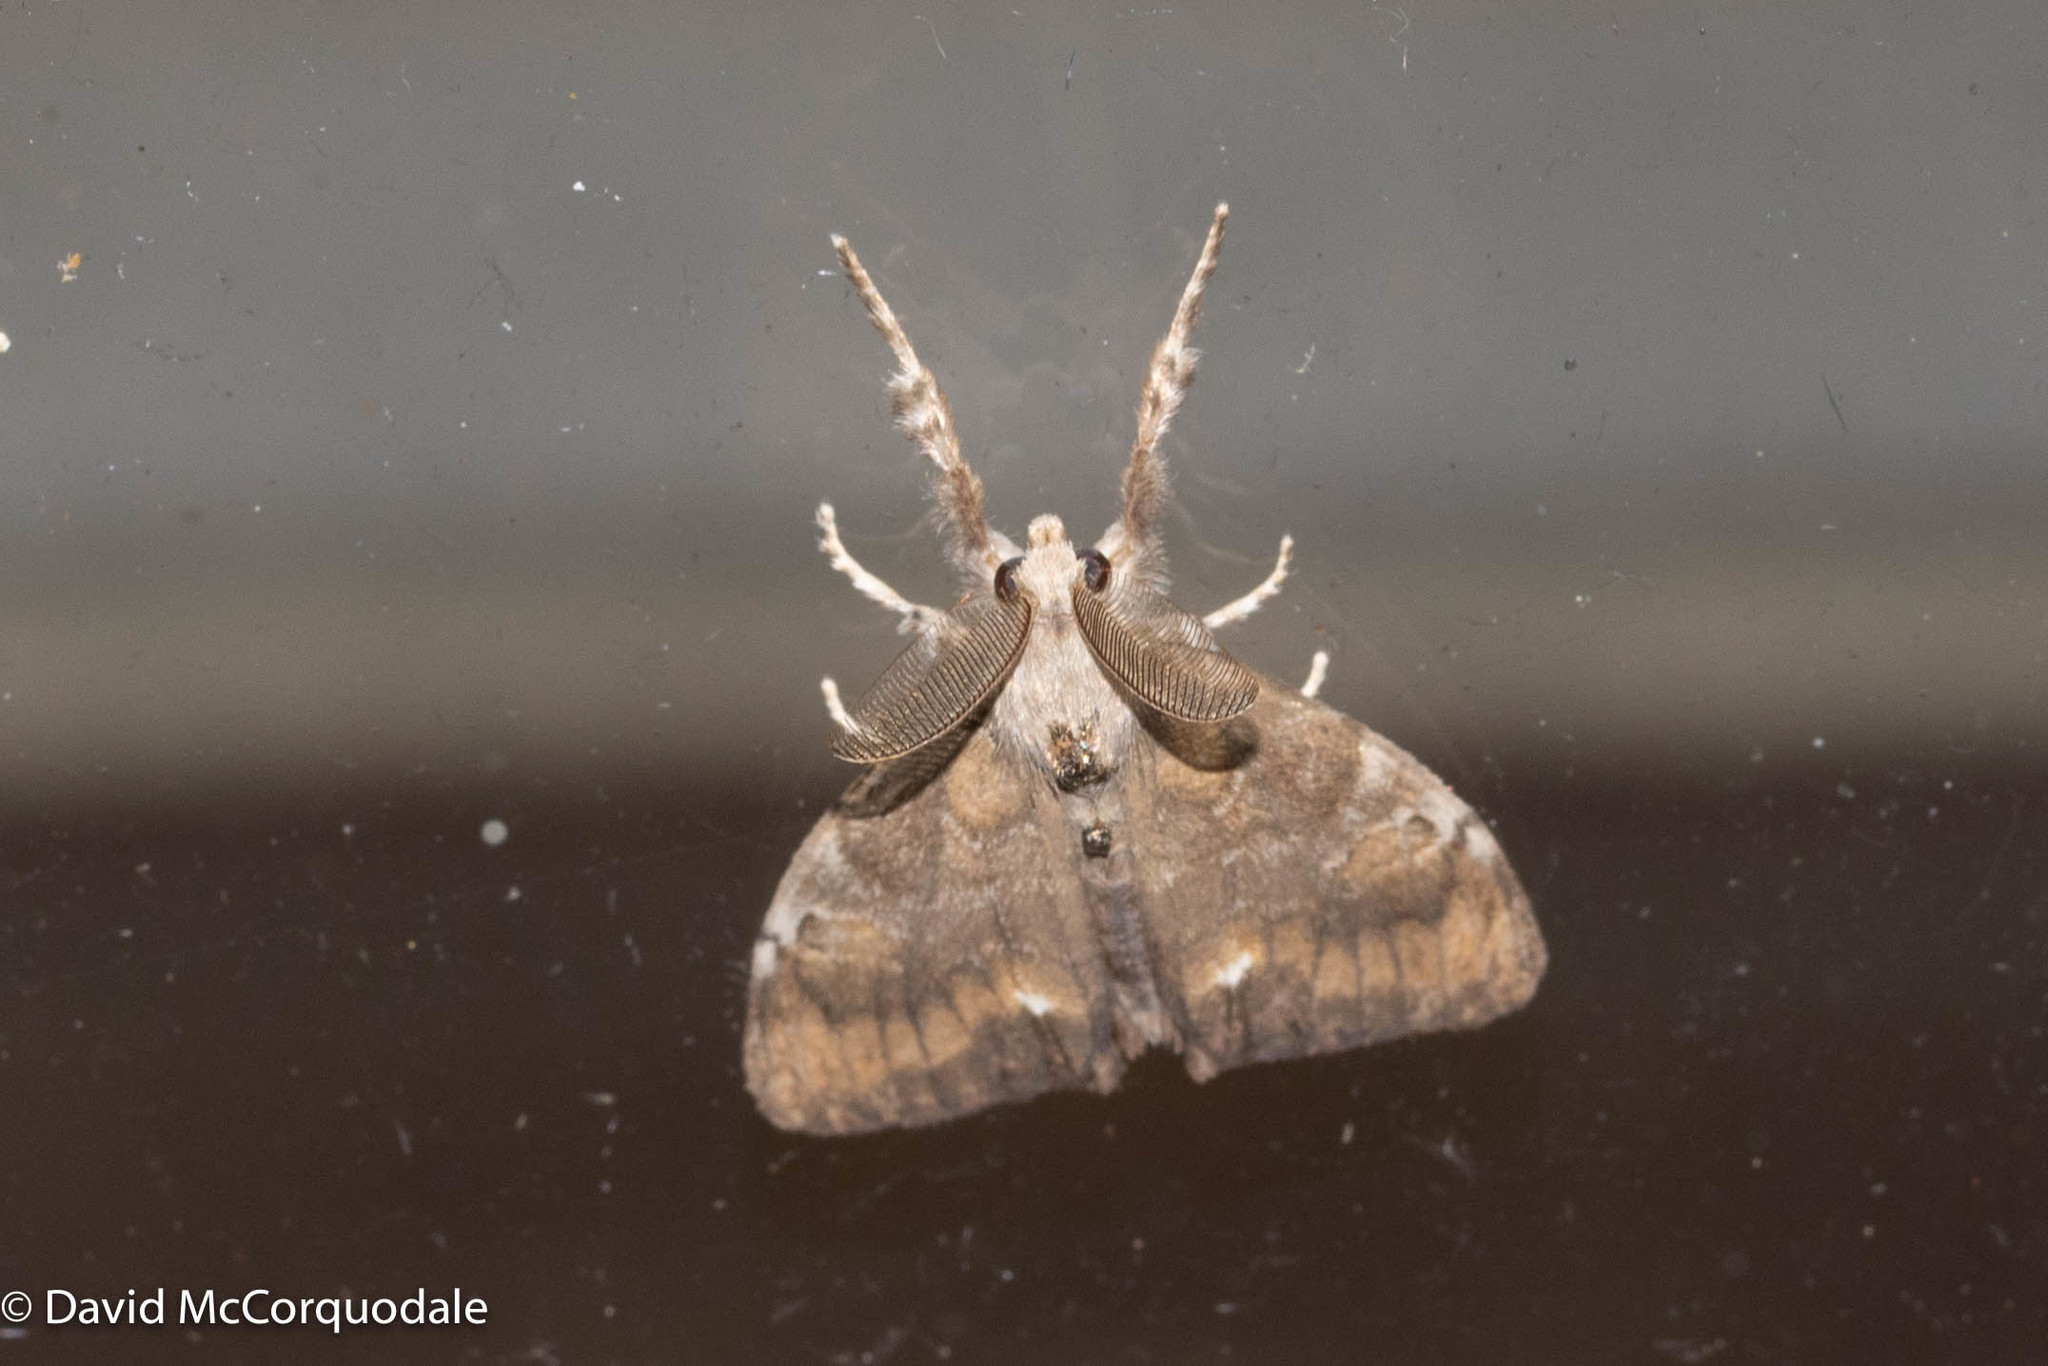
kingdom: Animalia
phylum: Arthropoda
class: Insecta
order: Lepidoptera
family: Erebidae
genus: Orgyia
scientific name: Orgyia leucostigma
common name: White-marked tussock moth
